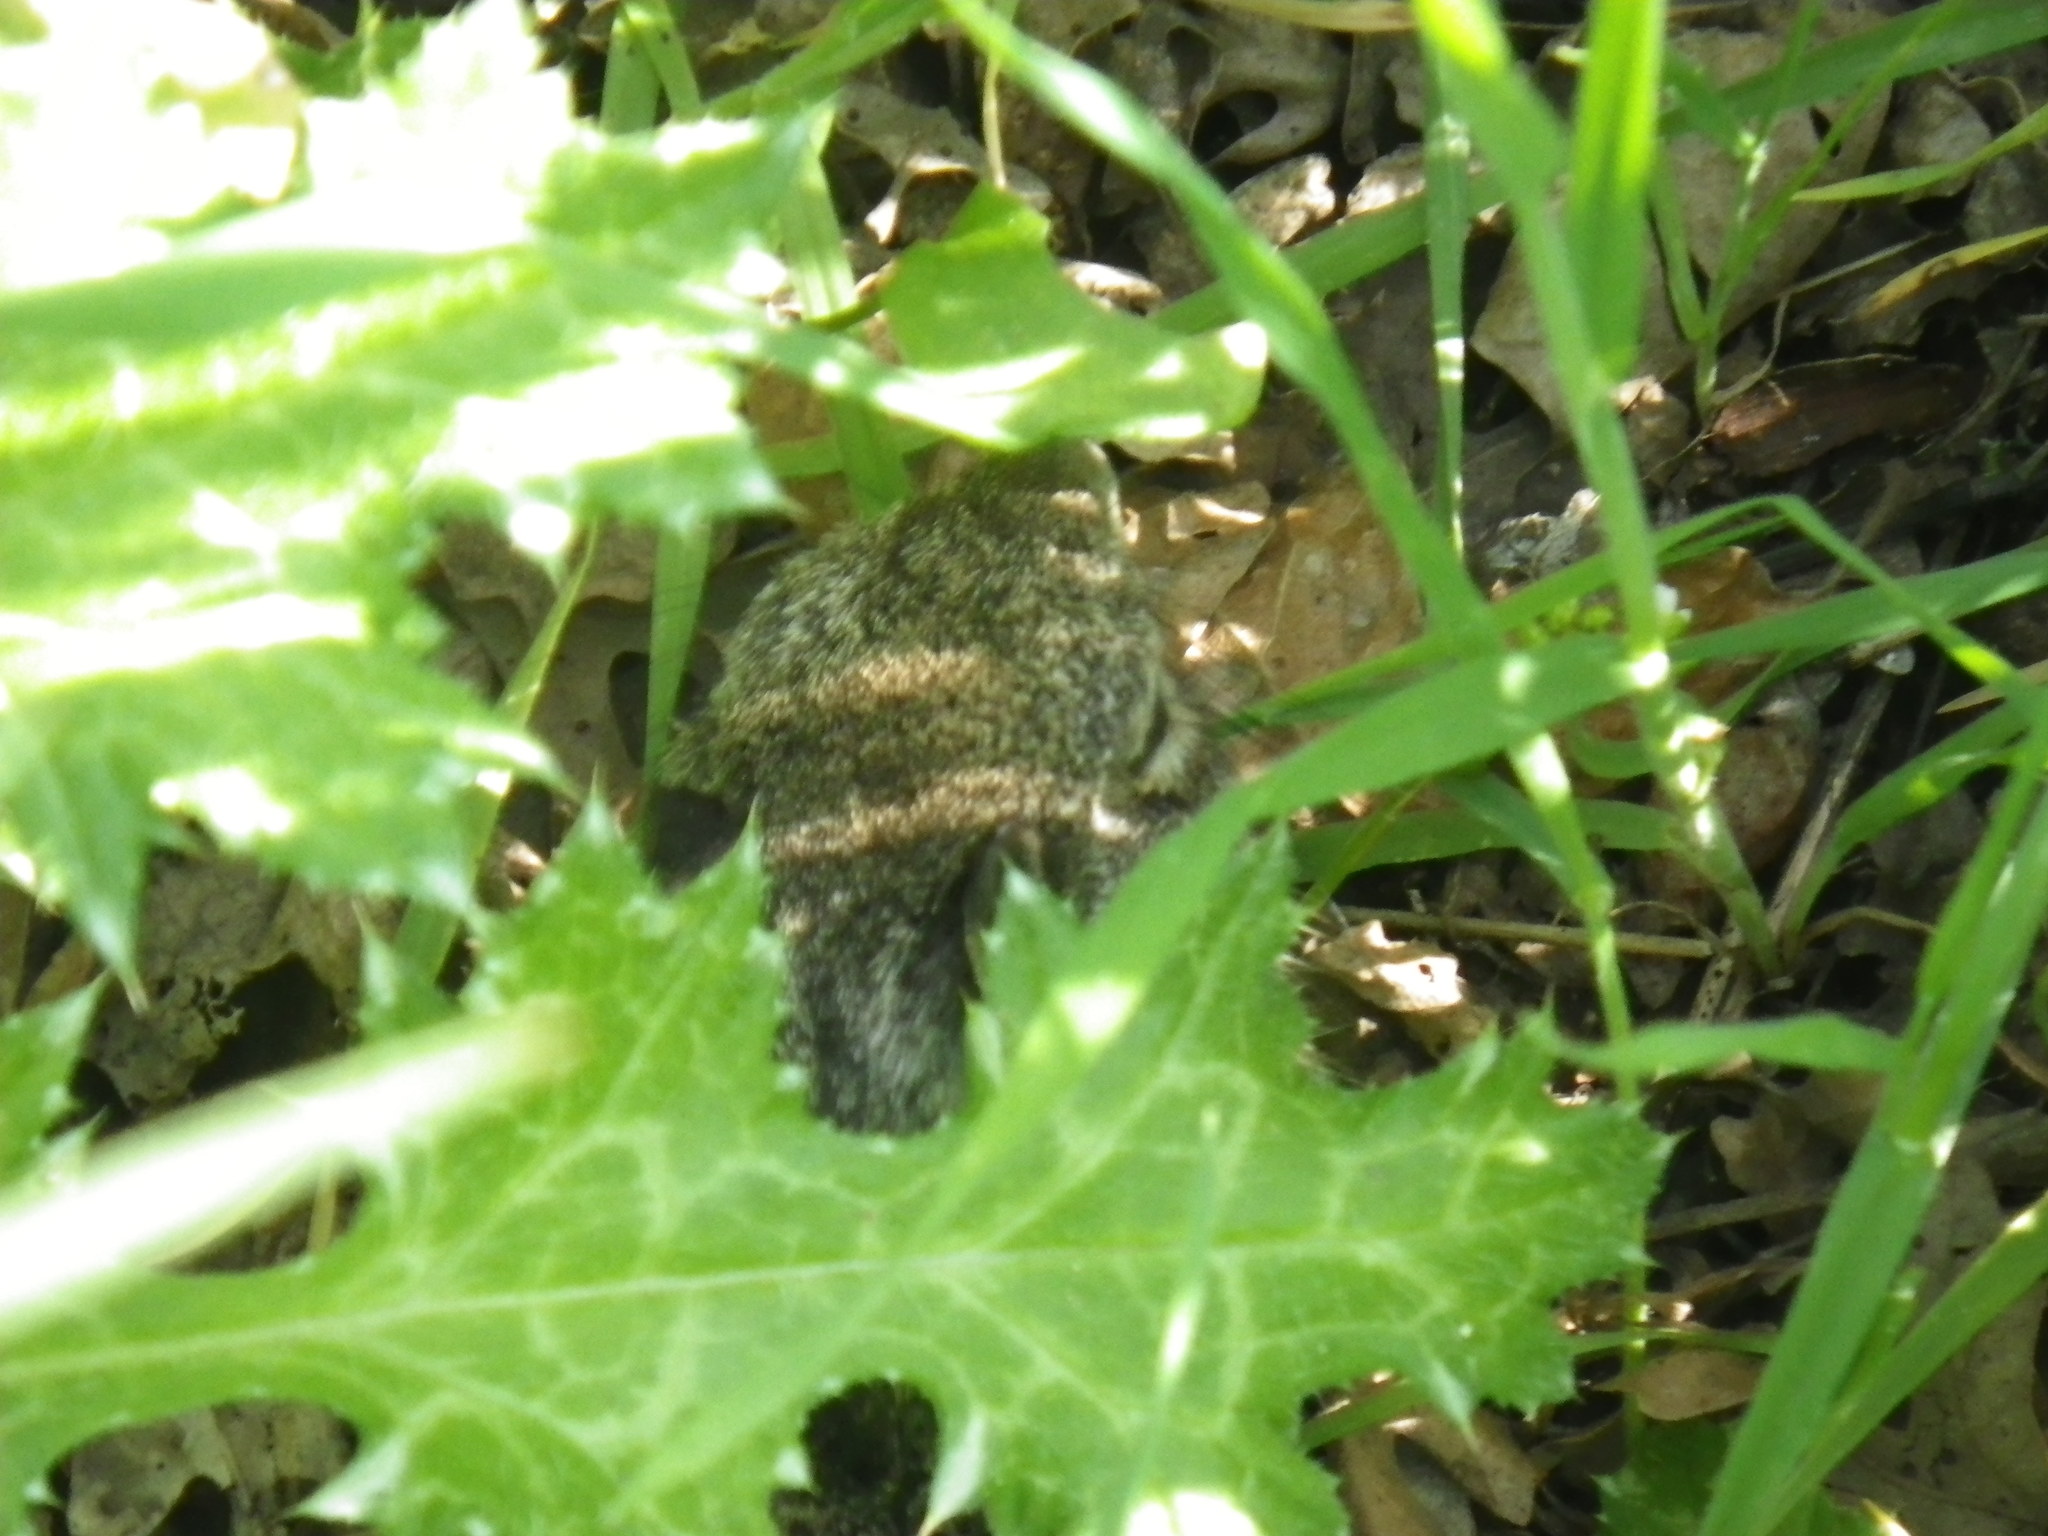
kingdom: Animalia
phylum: Chordata
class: Mammalia
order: Rodentia
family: Sciuridae
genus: Otospermophilus
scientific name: Otospermophilus beecheyi
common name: California ground squirrel
